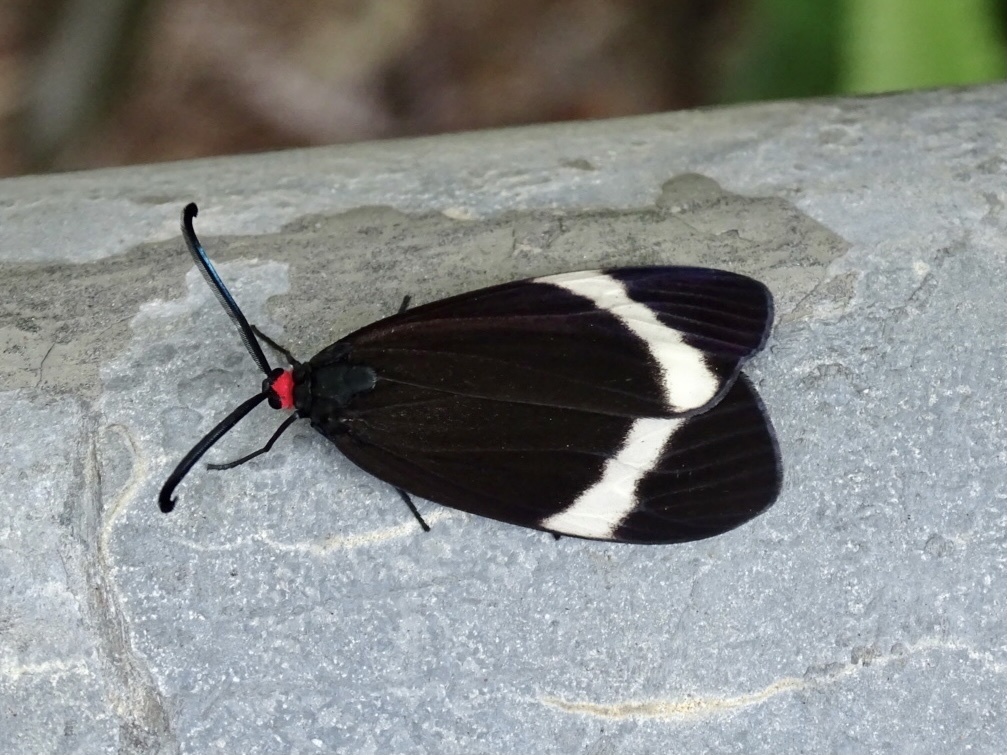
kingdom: Animalia
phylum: Arthropoda
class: Insecta
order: Lepidoptera
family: Zygaenidae
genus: Pidorus
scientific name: Pidorus glaucopis
